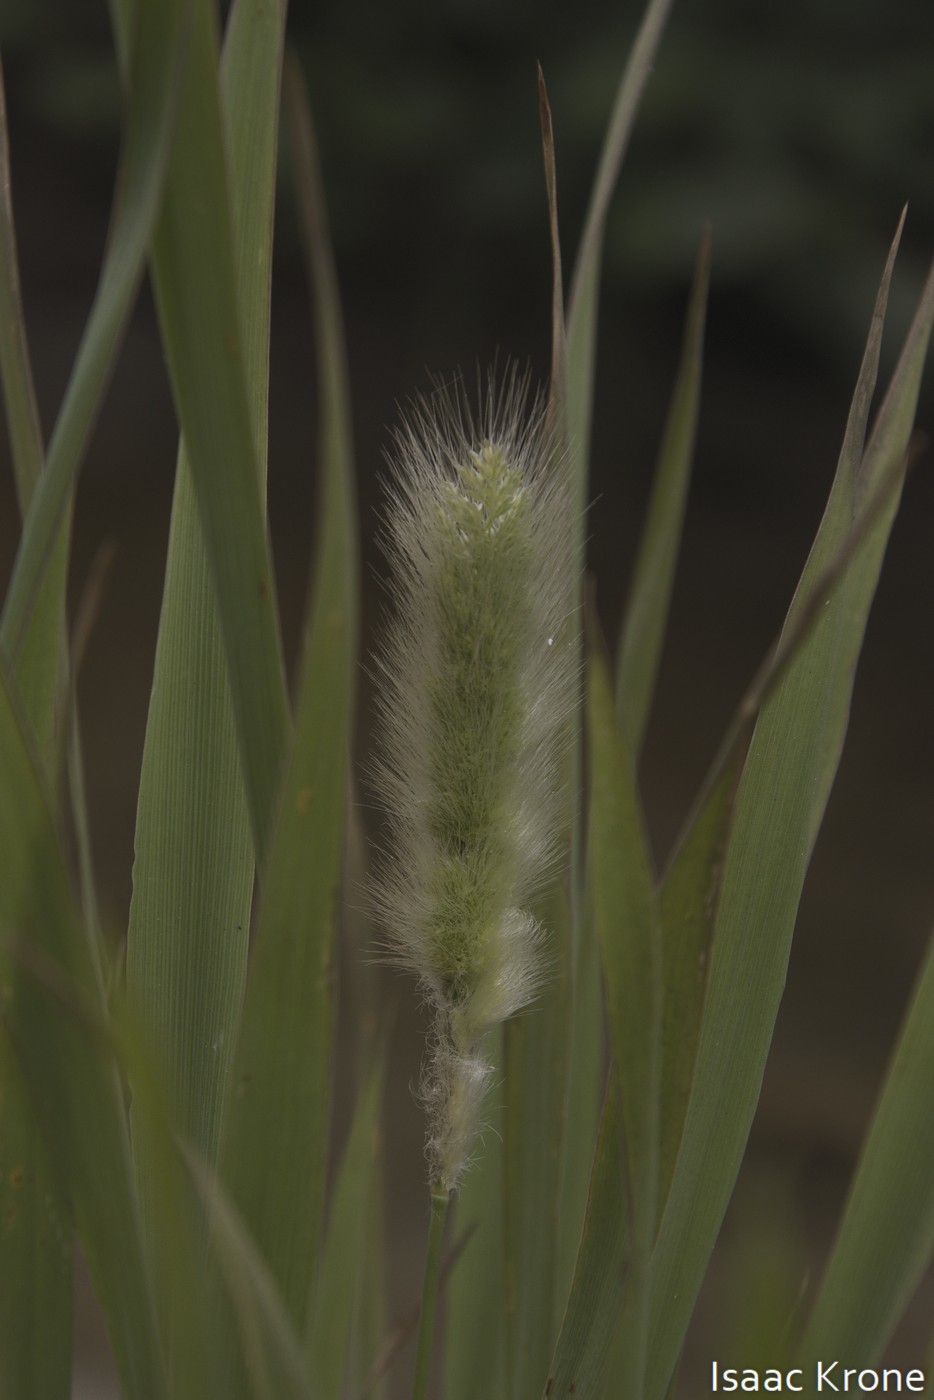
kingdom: Plantae
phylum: Tracheophyta
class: Liliopsida
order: Poales
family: Poaceae
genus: Polypogon
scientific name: Polypogon monspeliensis
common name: Annual rabbitsfoot grass
